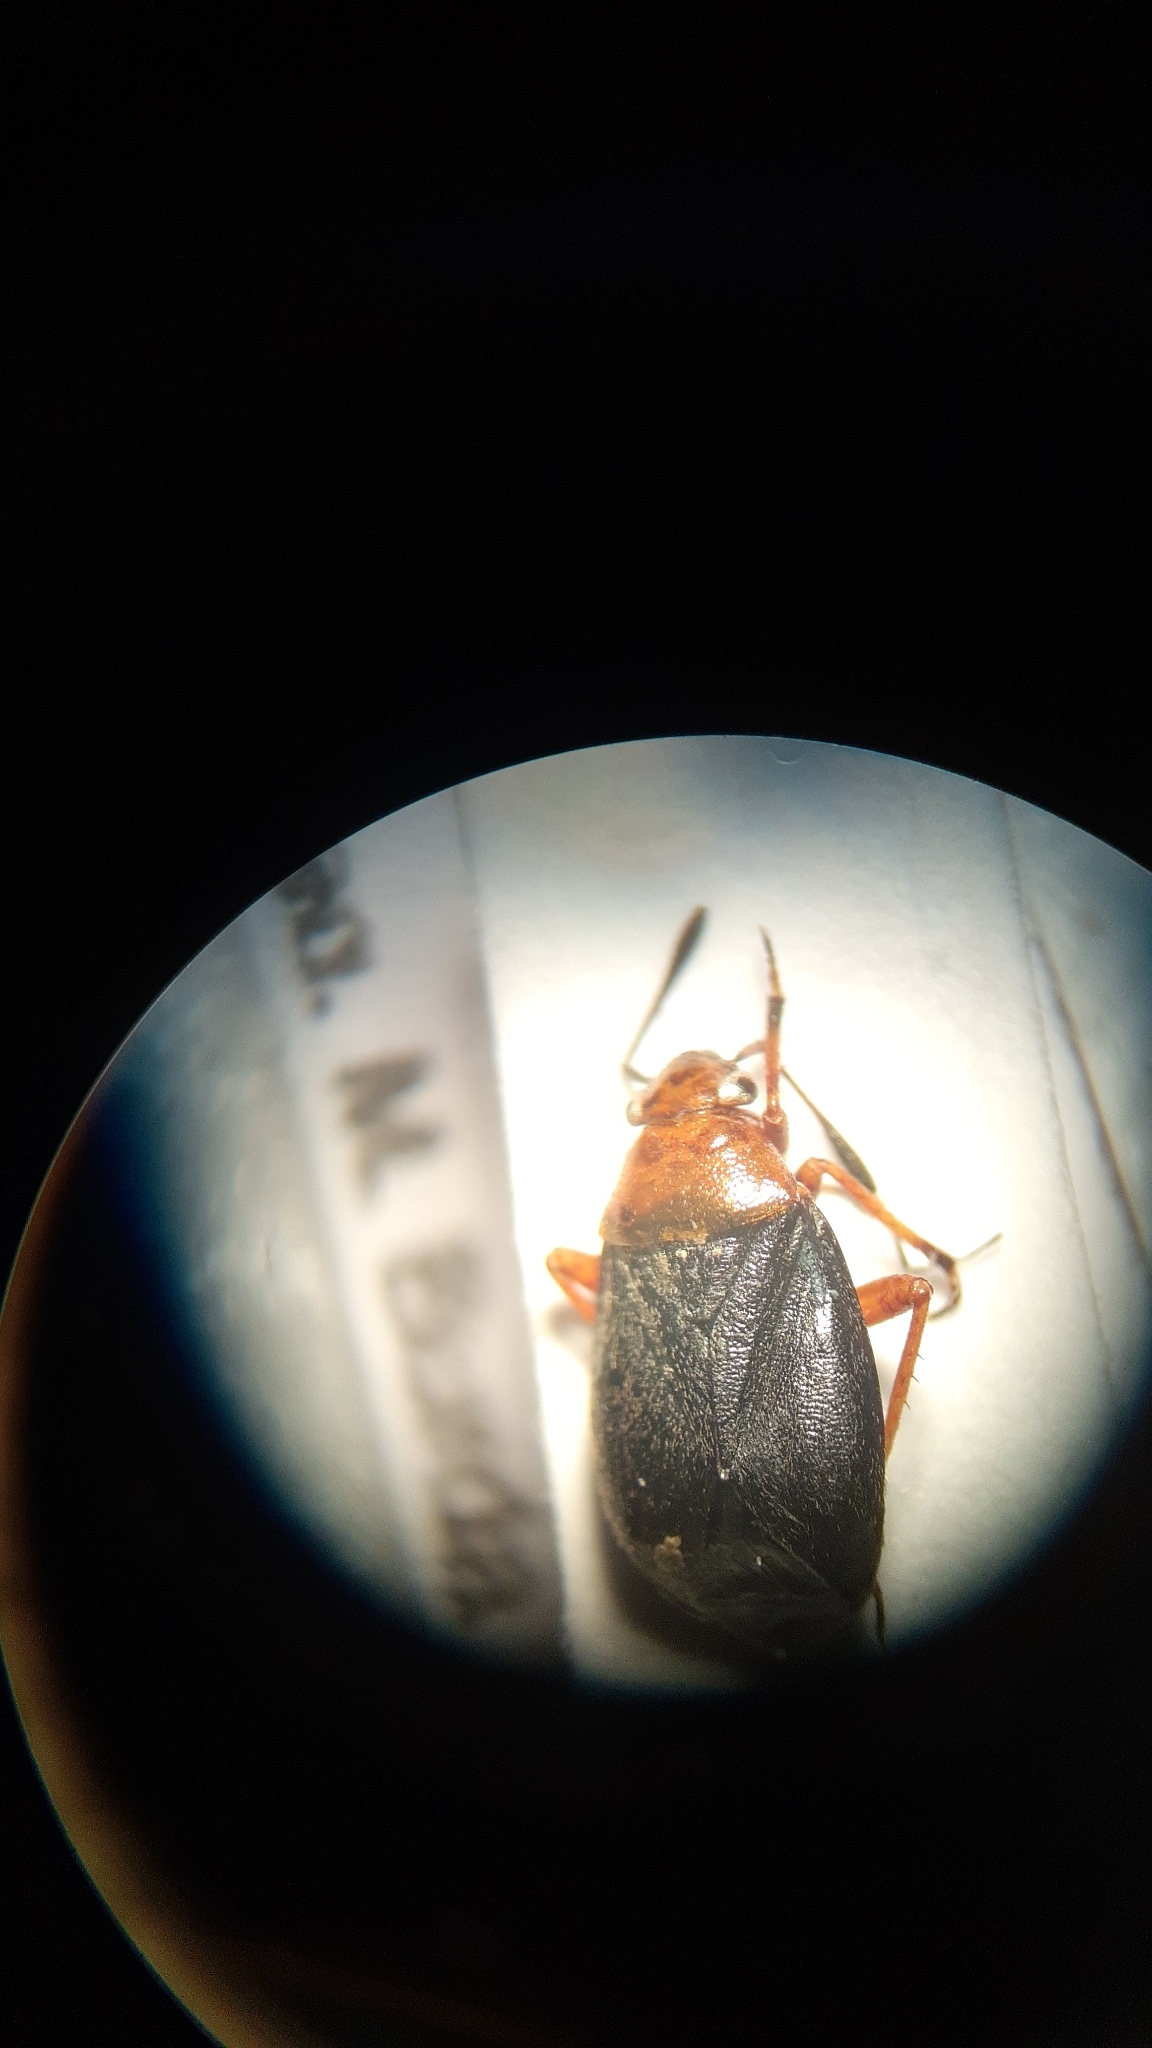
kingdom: Animalia
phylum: Arthropoda
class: Insecta
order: Hemiptera
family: Miridae
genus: Capsus
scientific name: Capsus ater
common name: Black plant bug
